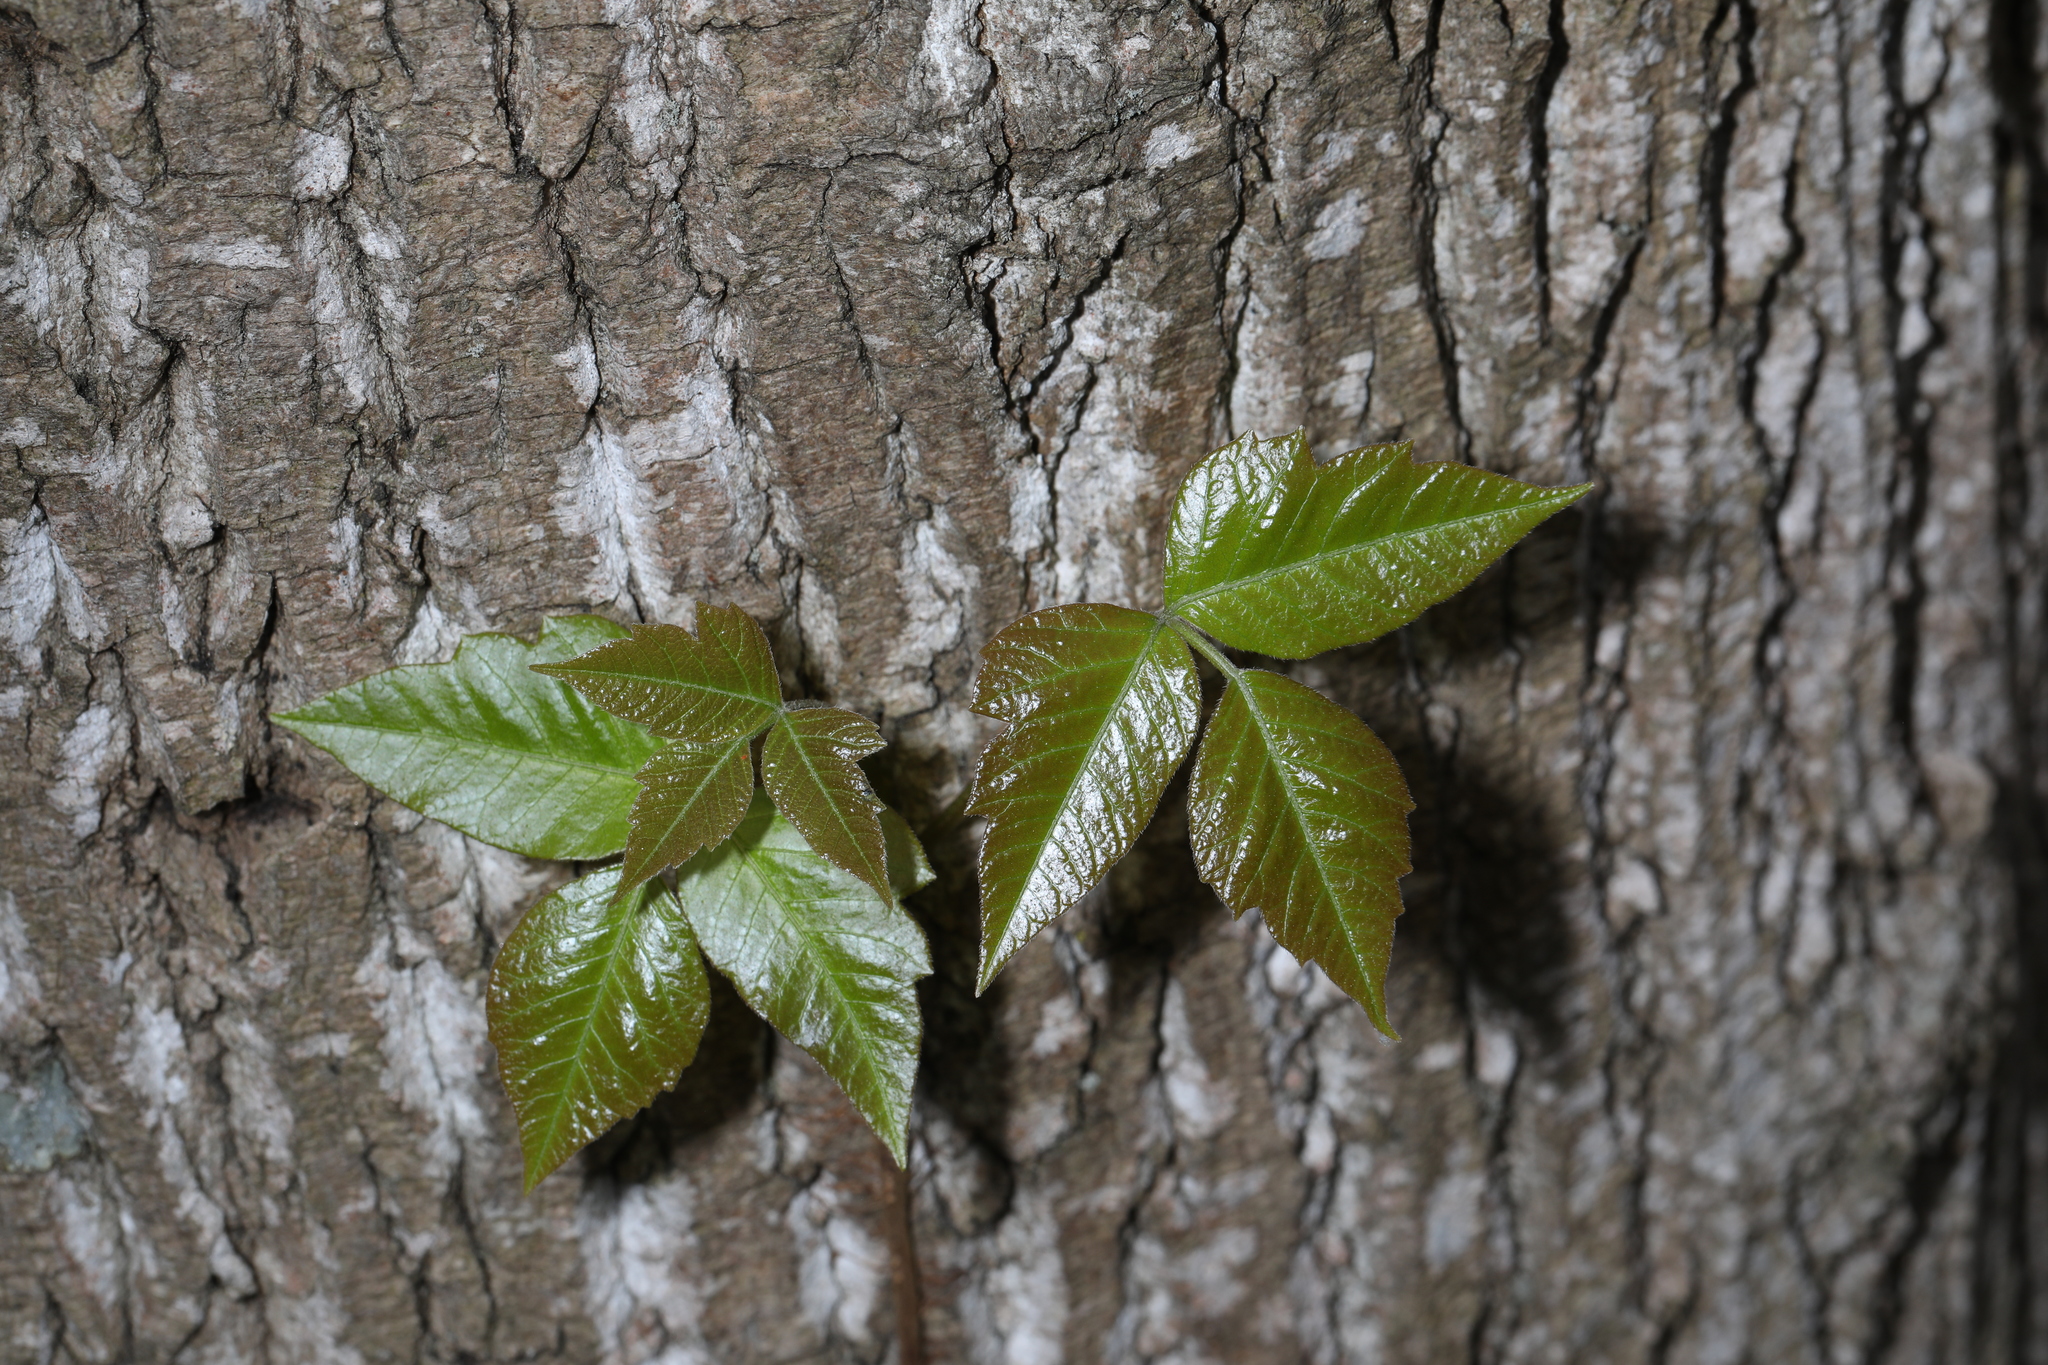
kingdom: Plantae
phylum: Tracheophyta
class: Magnoliopsida
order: Sapindales
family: Anacardiaceae
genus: Toxicodendron
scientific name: Toxicodendron radicans
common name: Poison ivy
